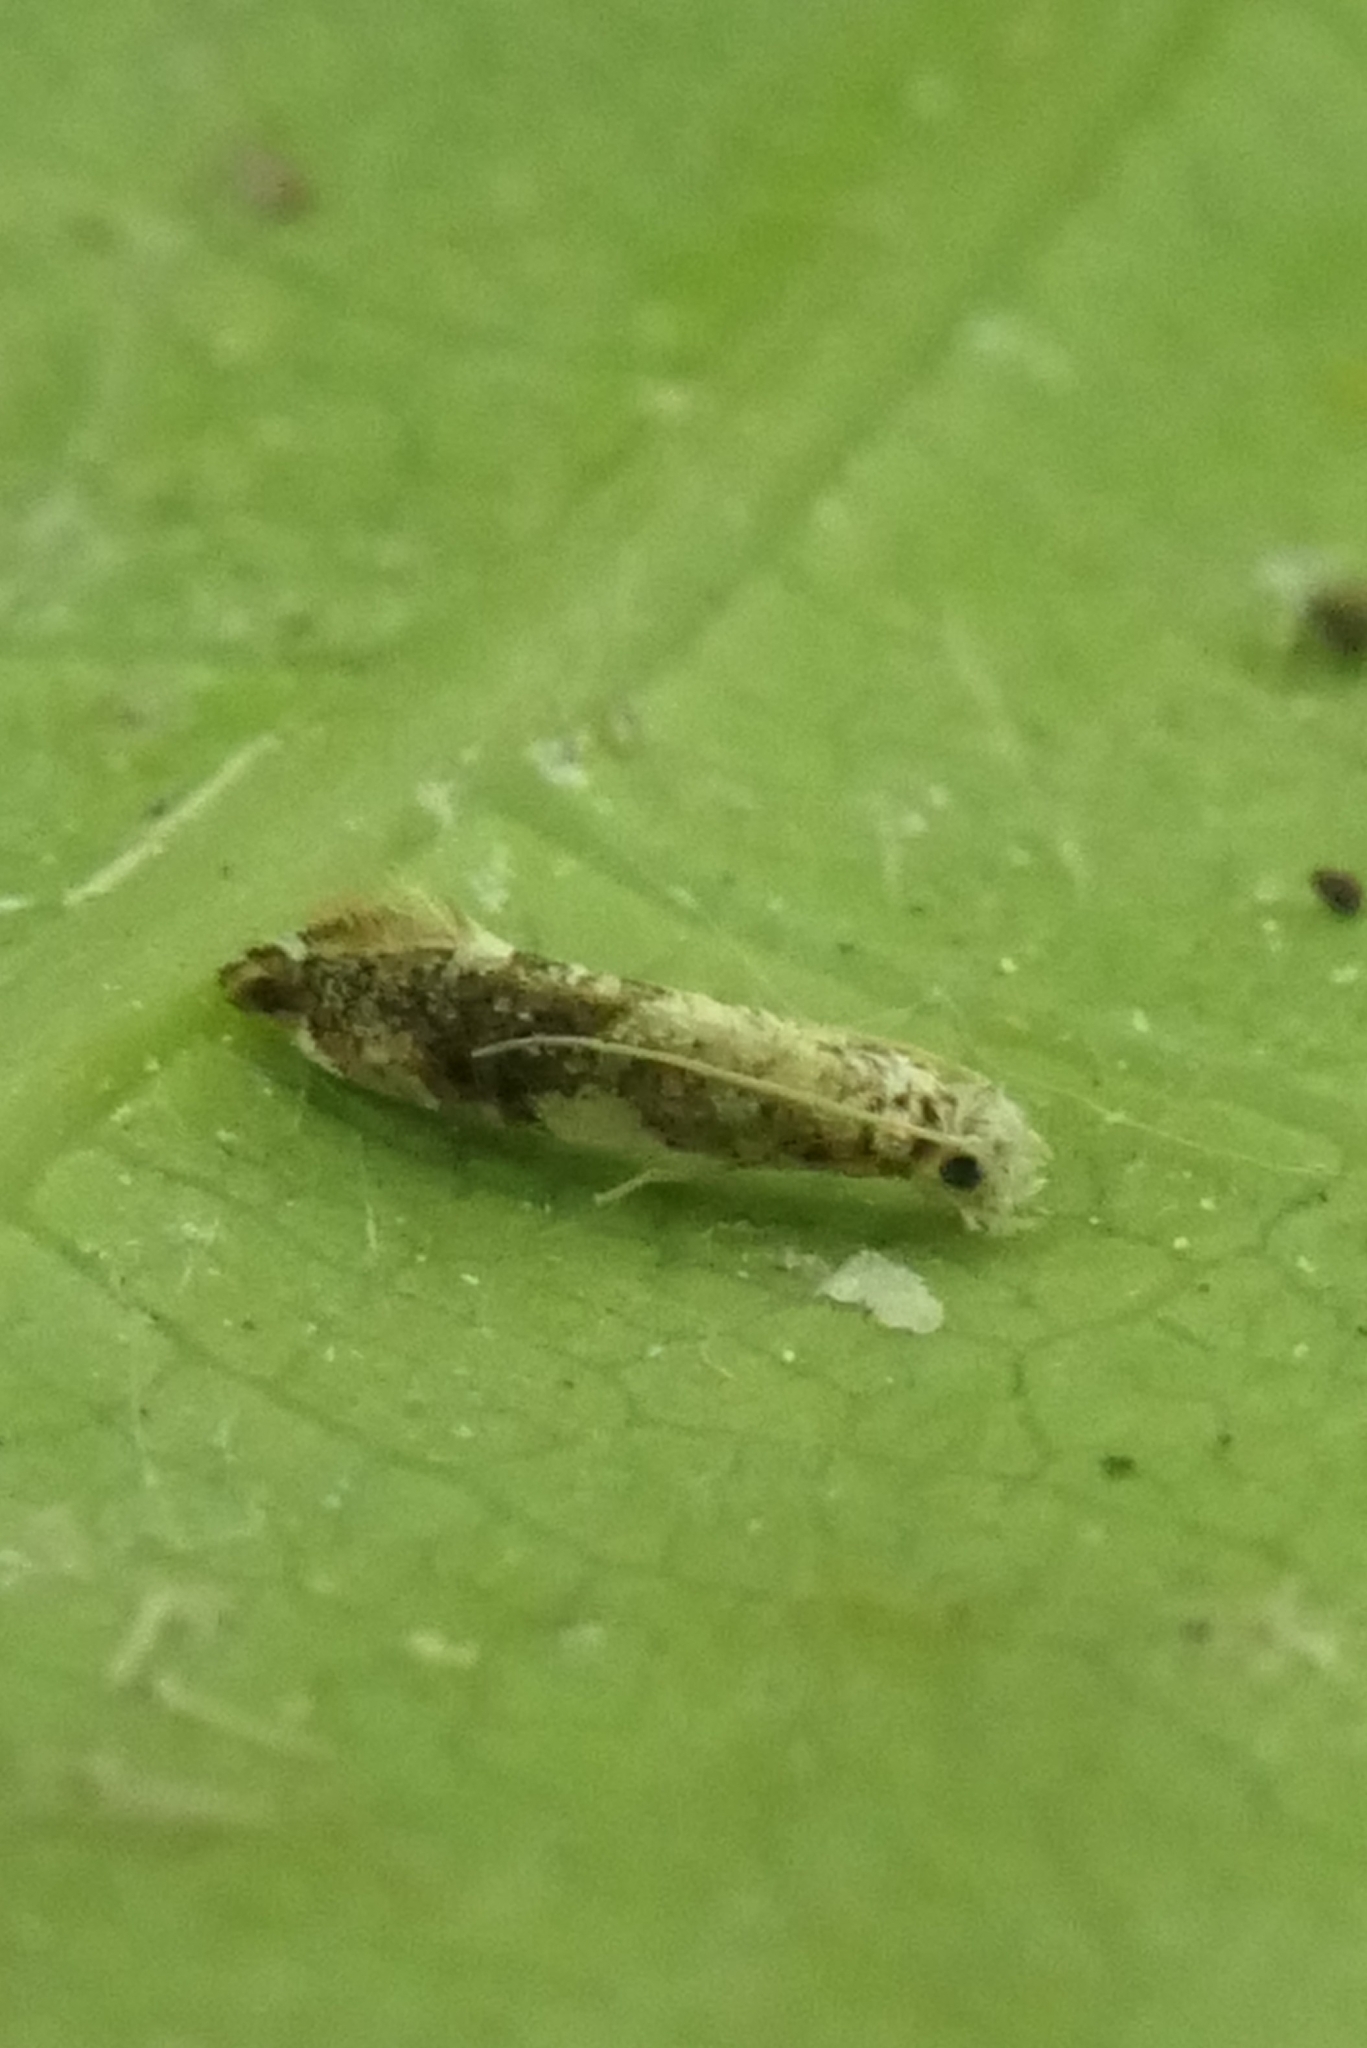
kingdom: Animalia
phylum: Arthropoda
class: Insecta
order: Lepidoptera
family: Tineidae
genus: Eschatotypa
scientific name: Eschatotypa derogatella
